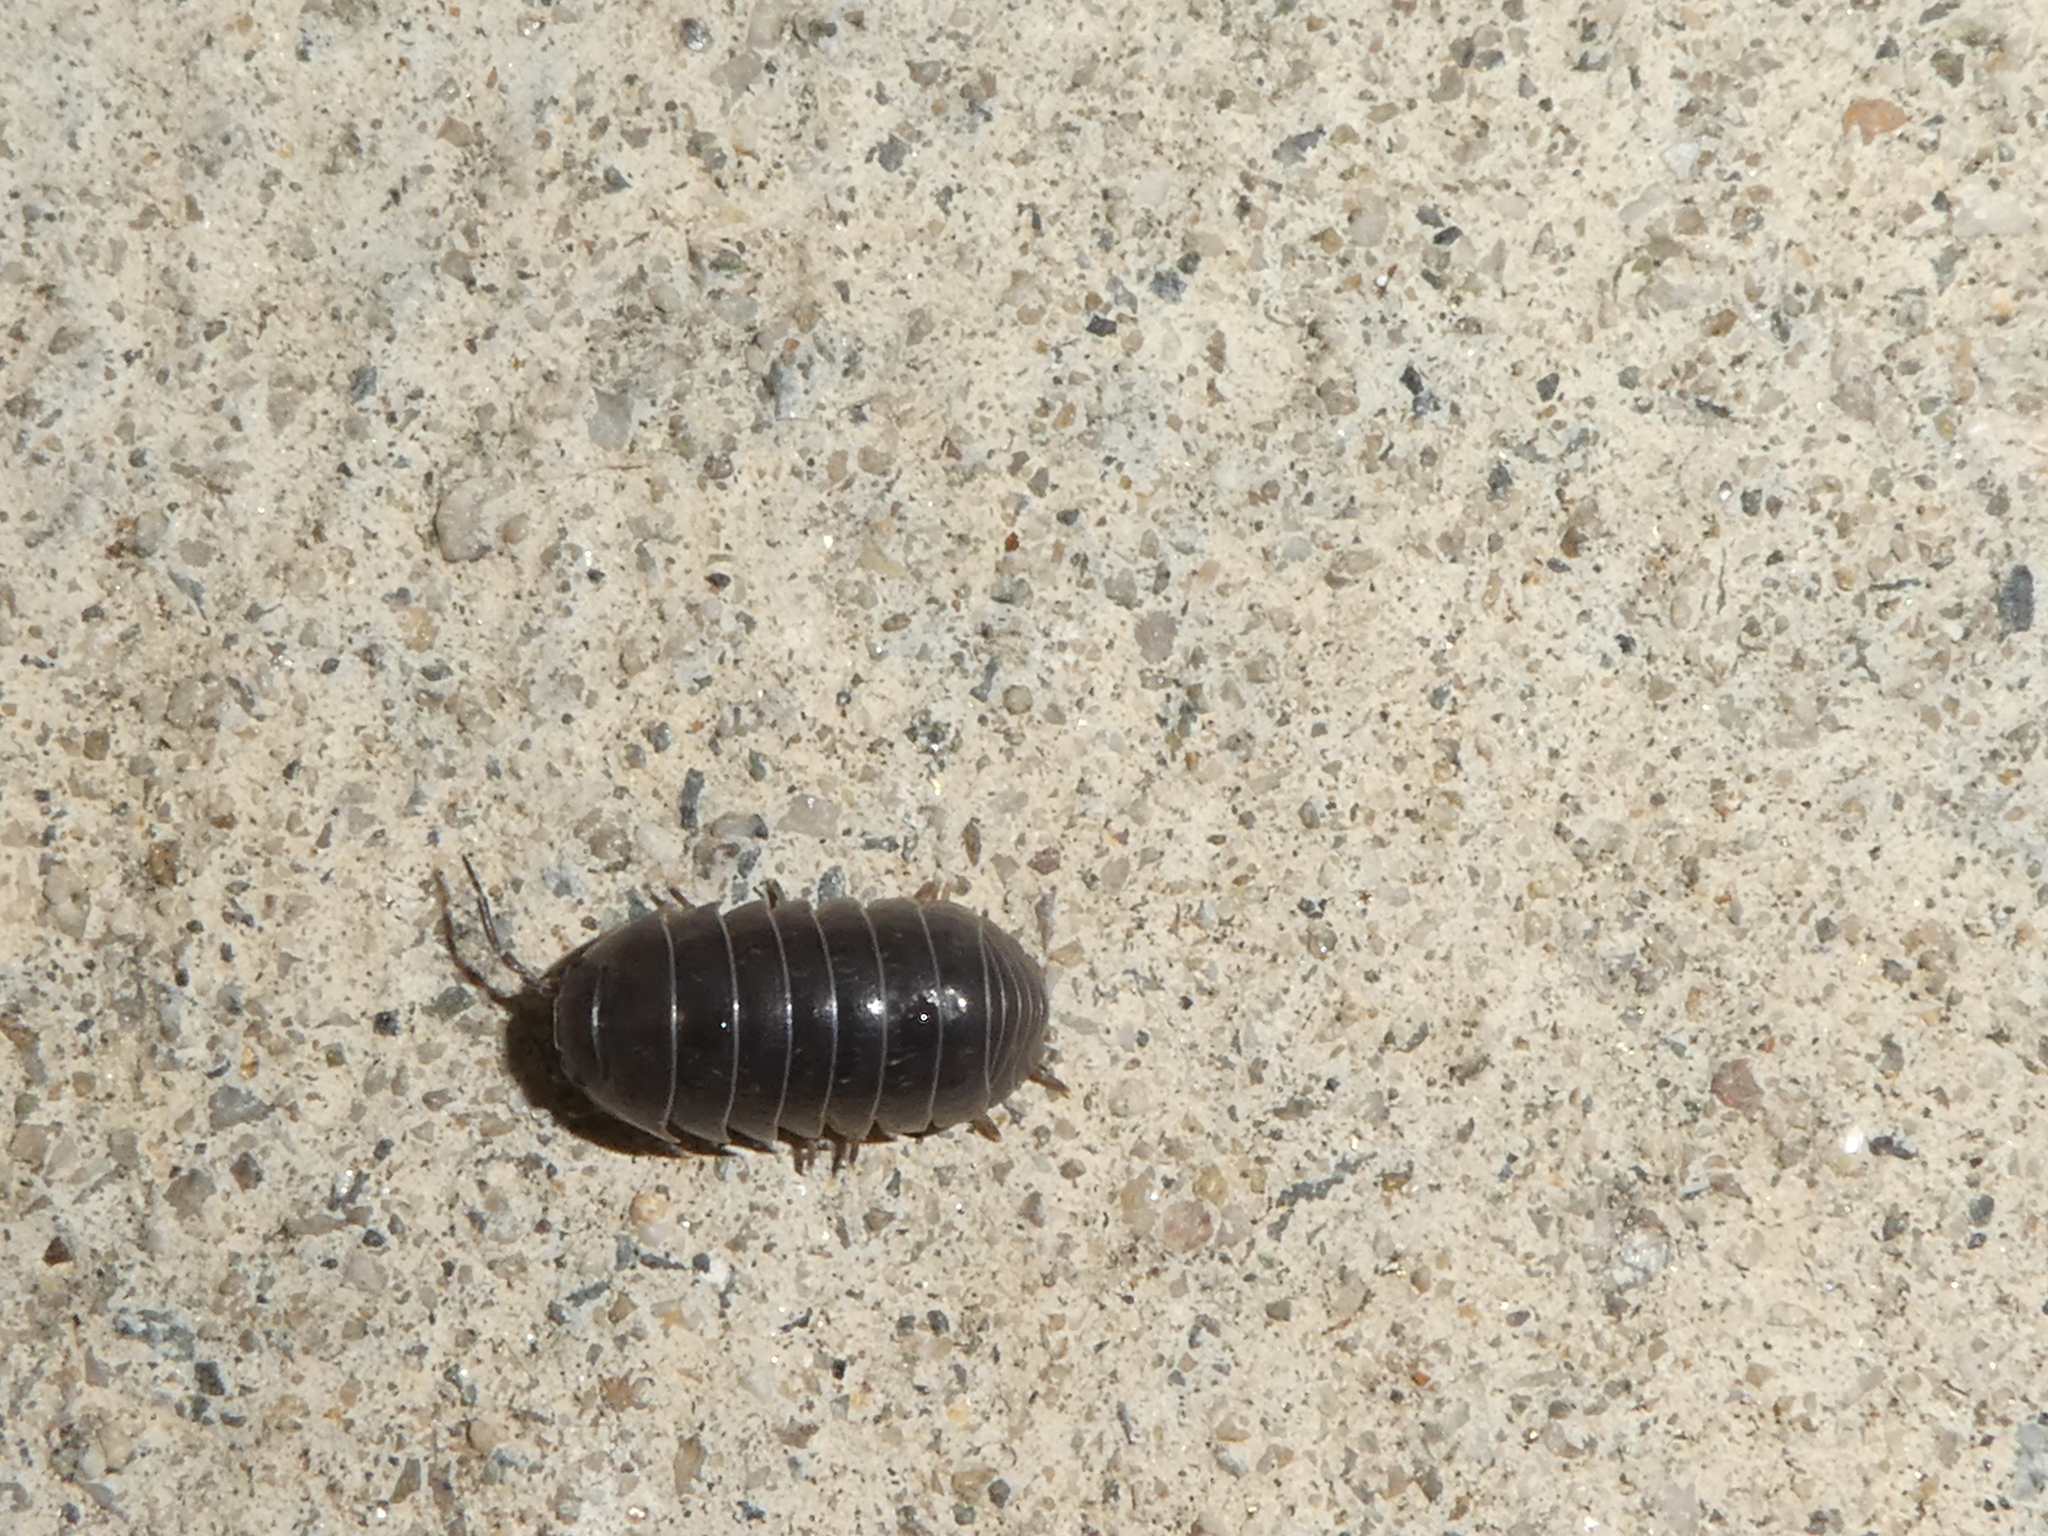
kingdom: Animalia
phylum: Arthropoda
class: Malacostraca
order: Isopoda
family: Armadillidiidae
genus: Armadillidium
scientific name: Armadillidium vulgare
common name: Common pill woodlouse
